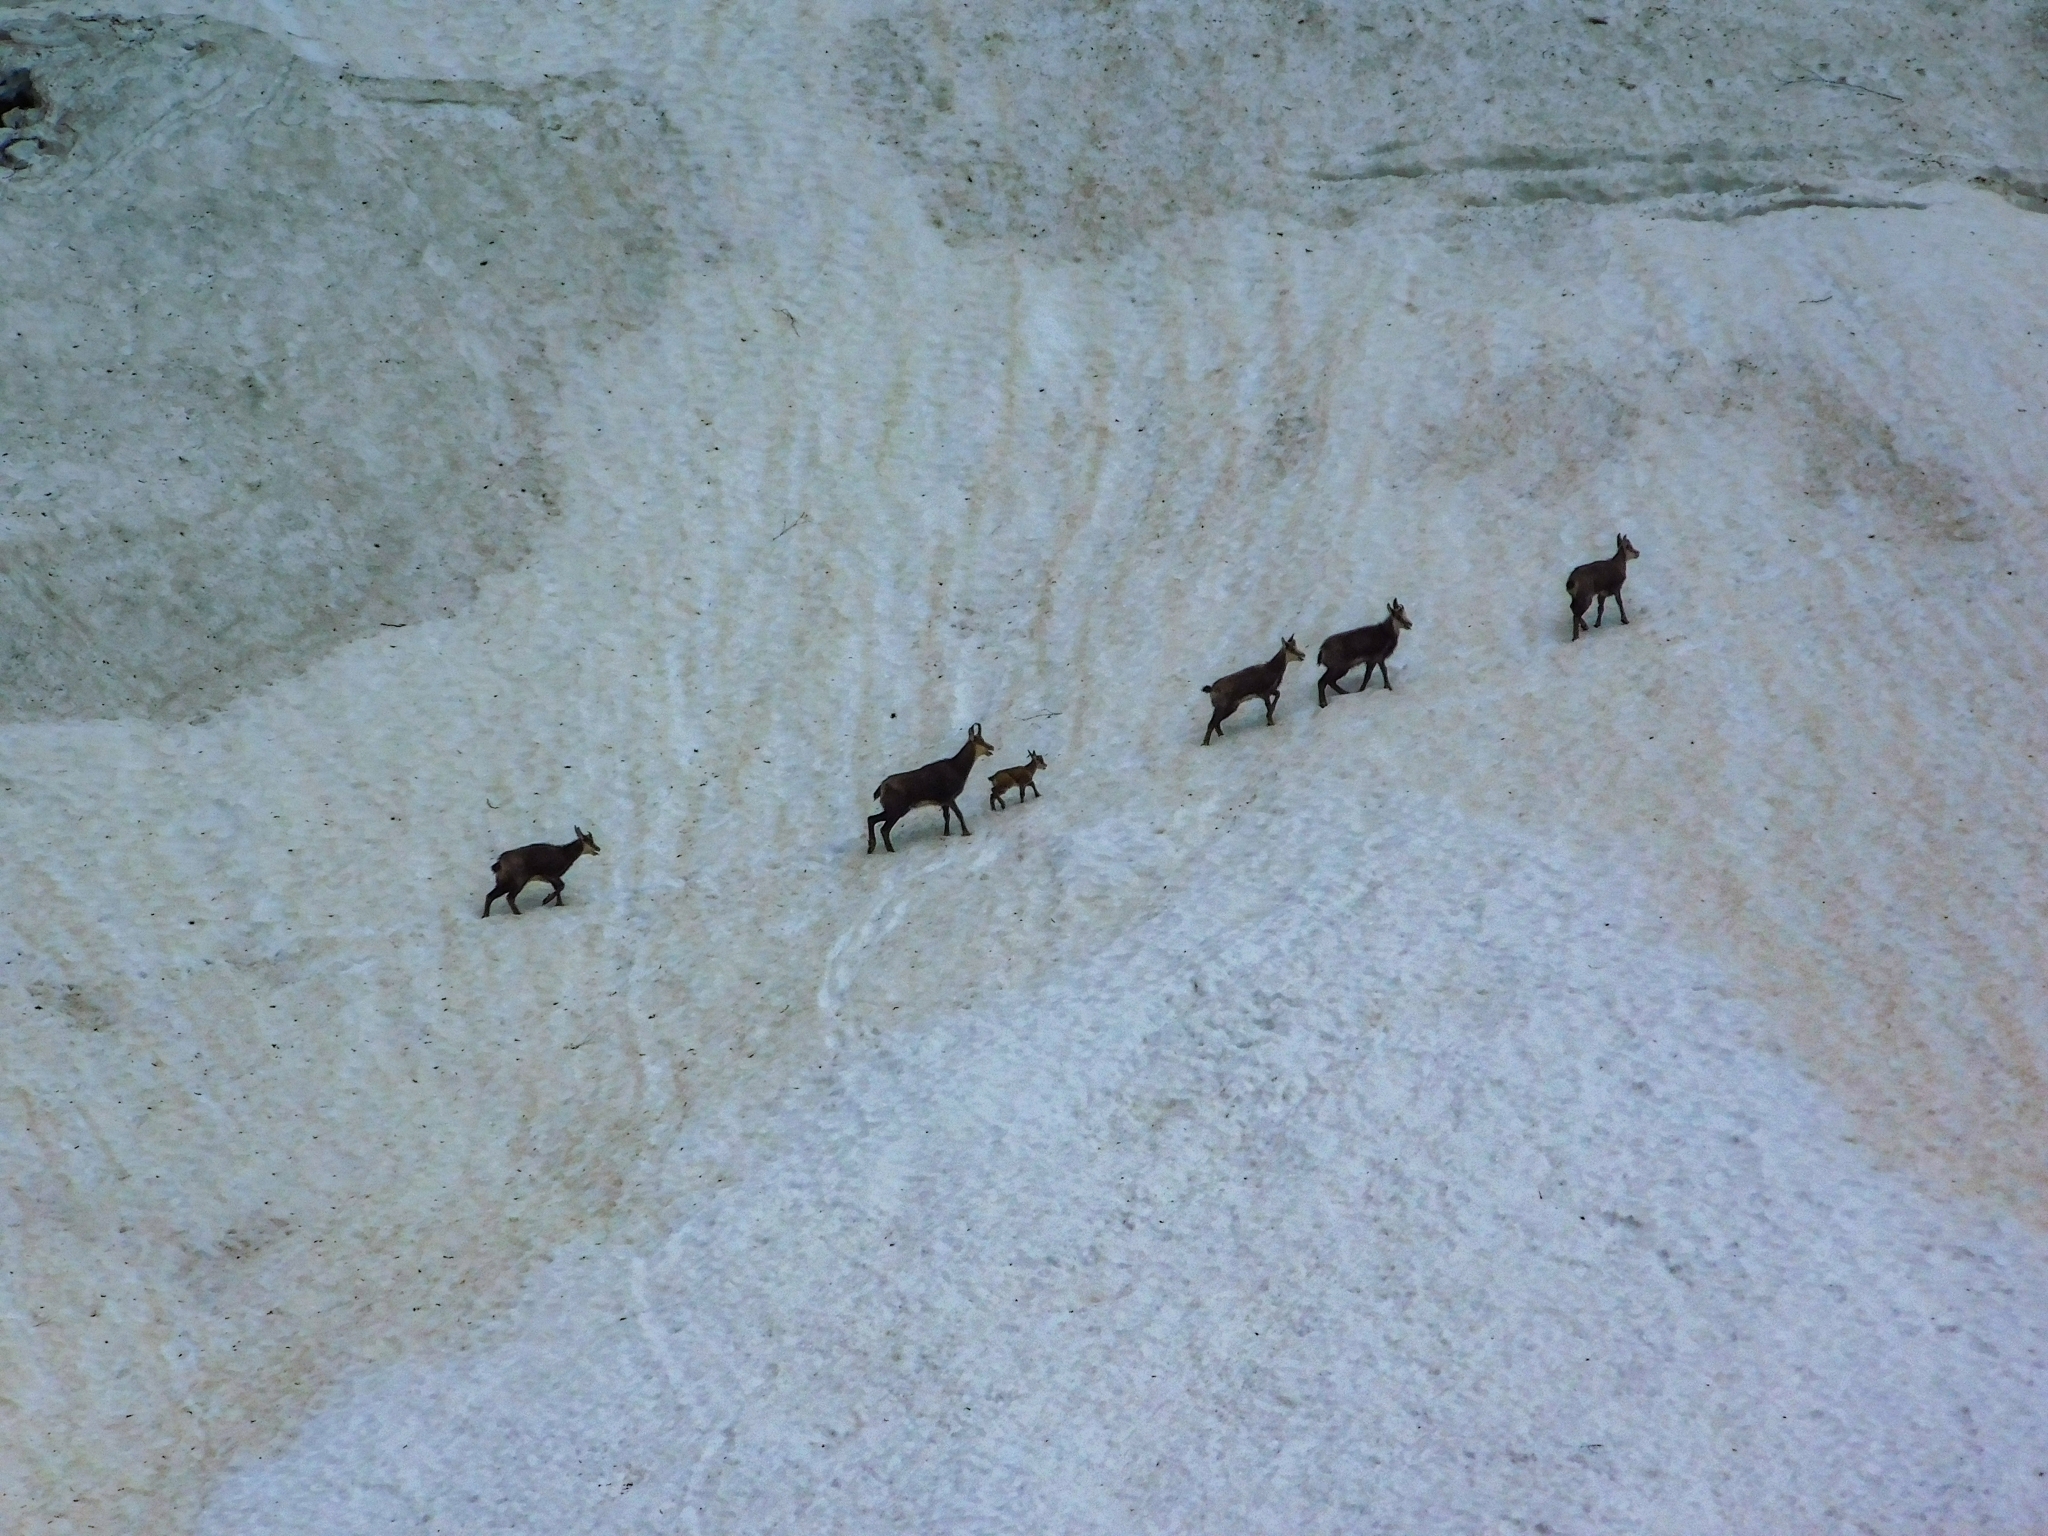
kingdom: Animalia
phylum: Chordata
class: Mammalia
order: Artiodactyla
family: Bovidae
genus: Rupicapra
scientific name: Rupicapra rupicapra
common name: Chamois
